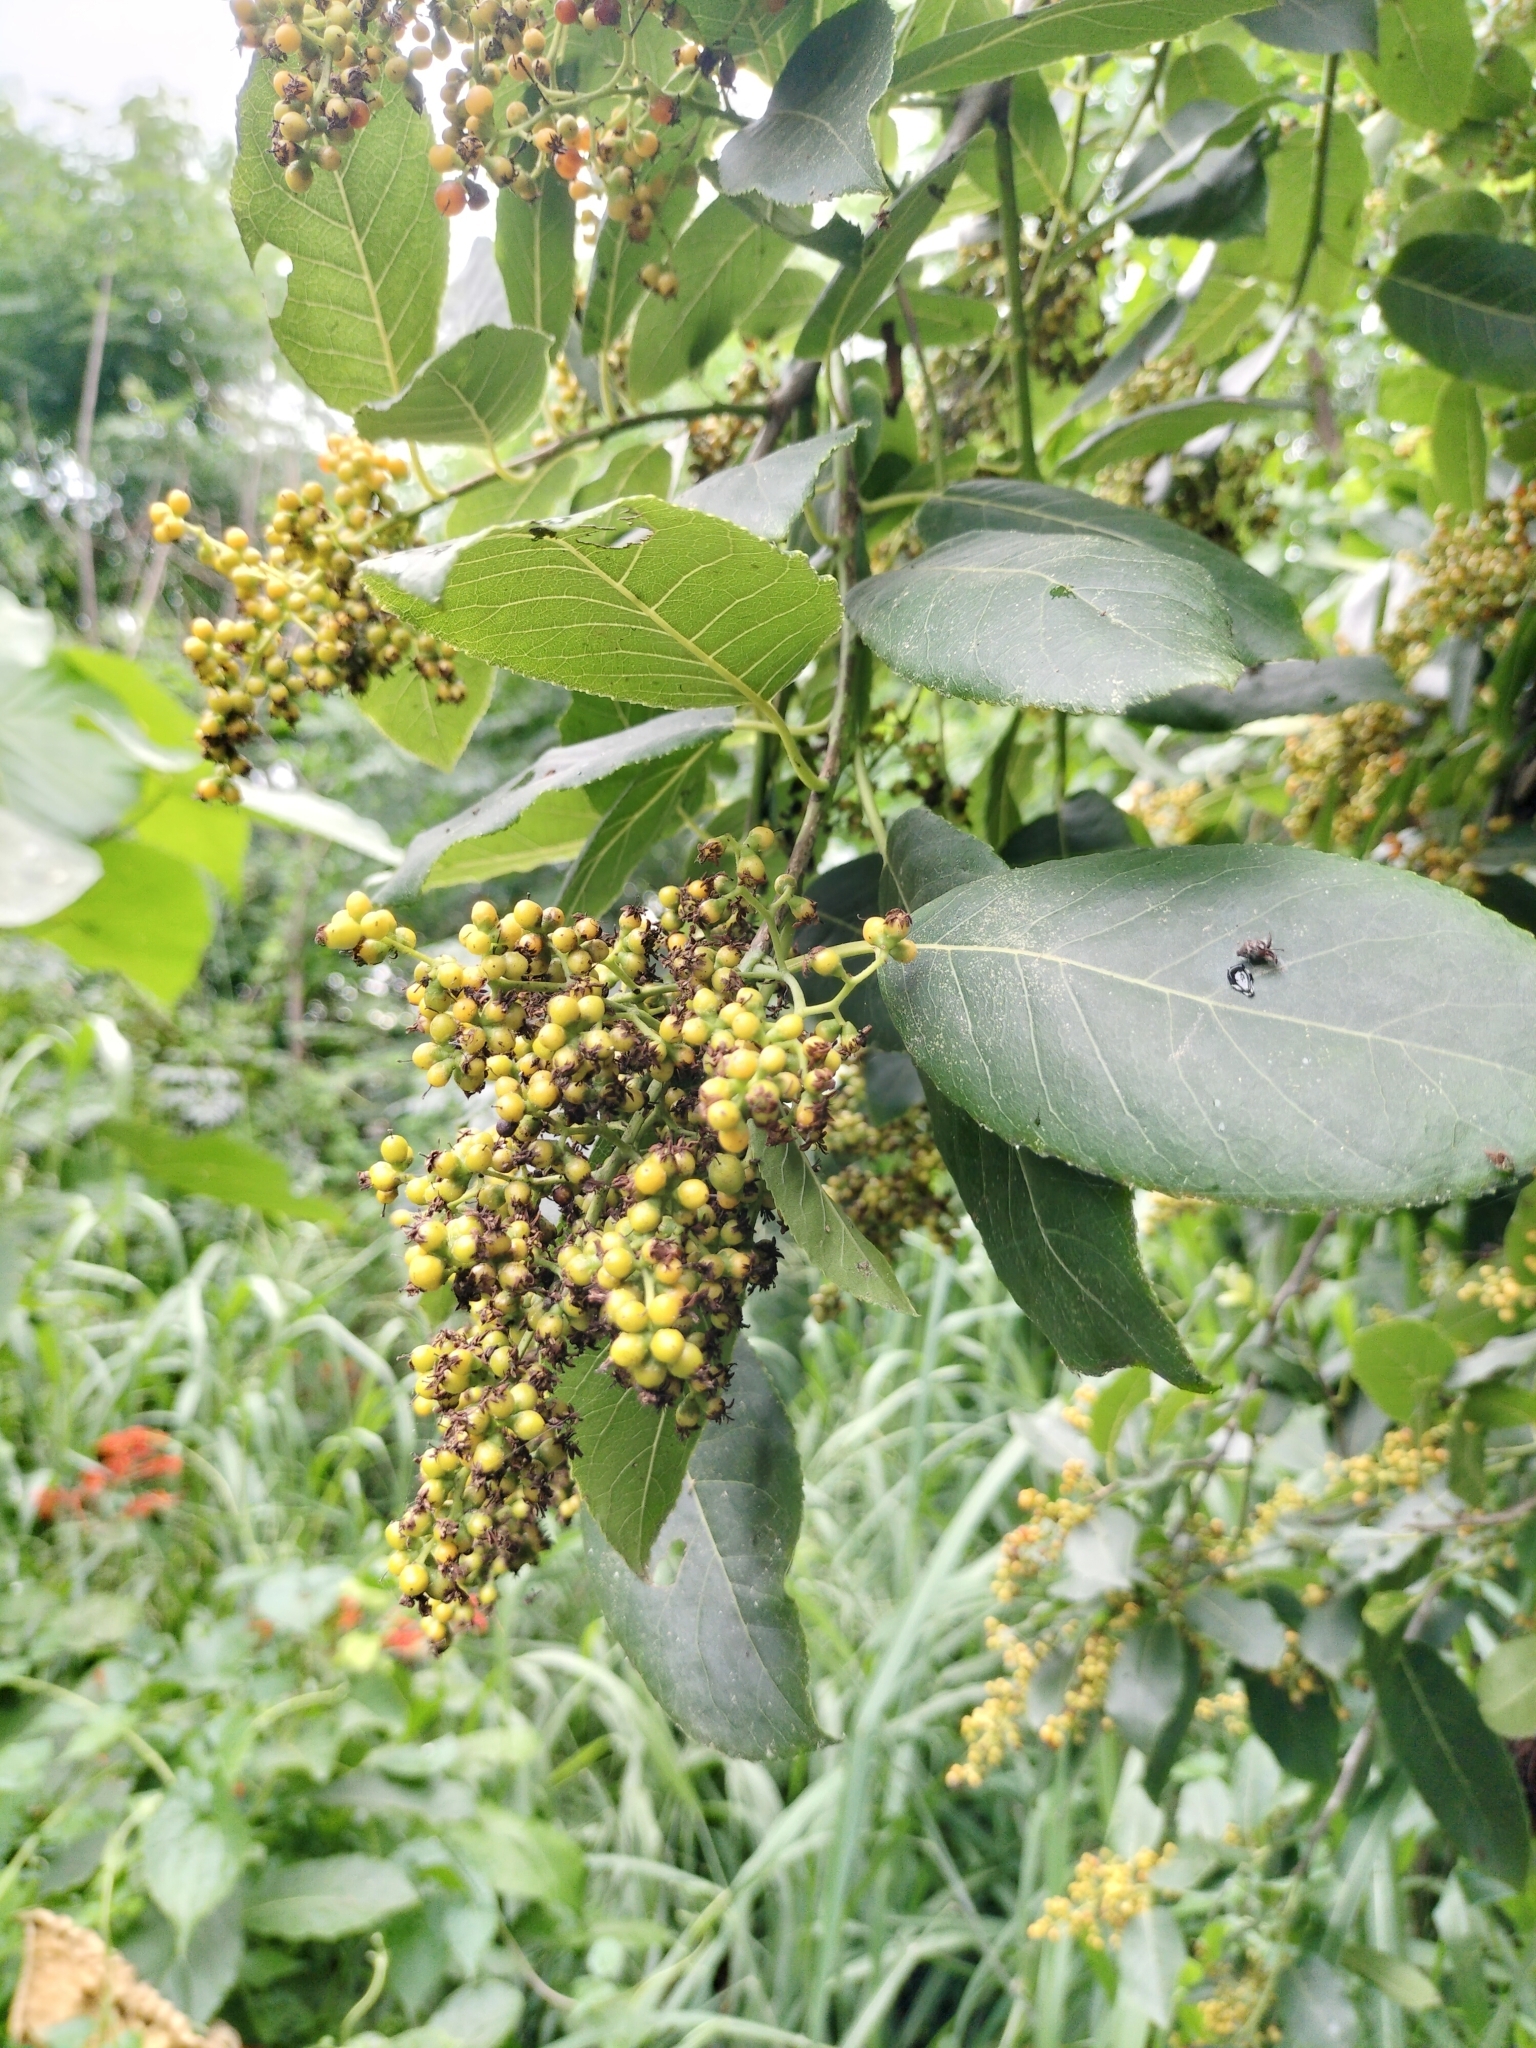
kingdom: Plantae
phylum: Tracheophyta
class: Magnoliopsida
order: Boraginales
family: Ehretiaceae
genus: Ehretia
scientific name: Ehretia acuminata
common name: Kodo wood
